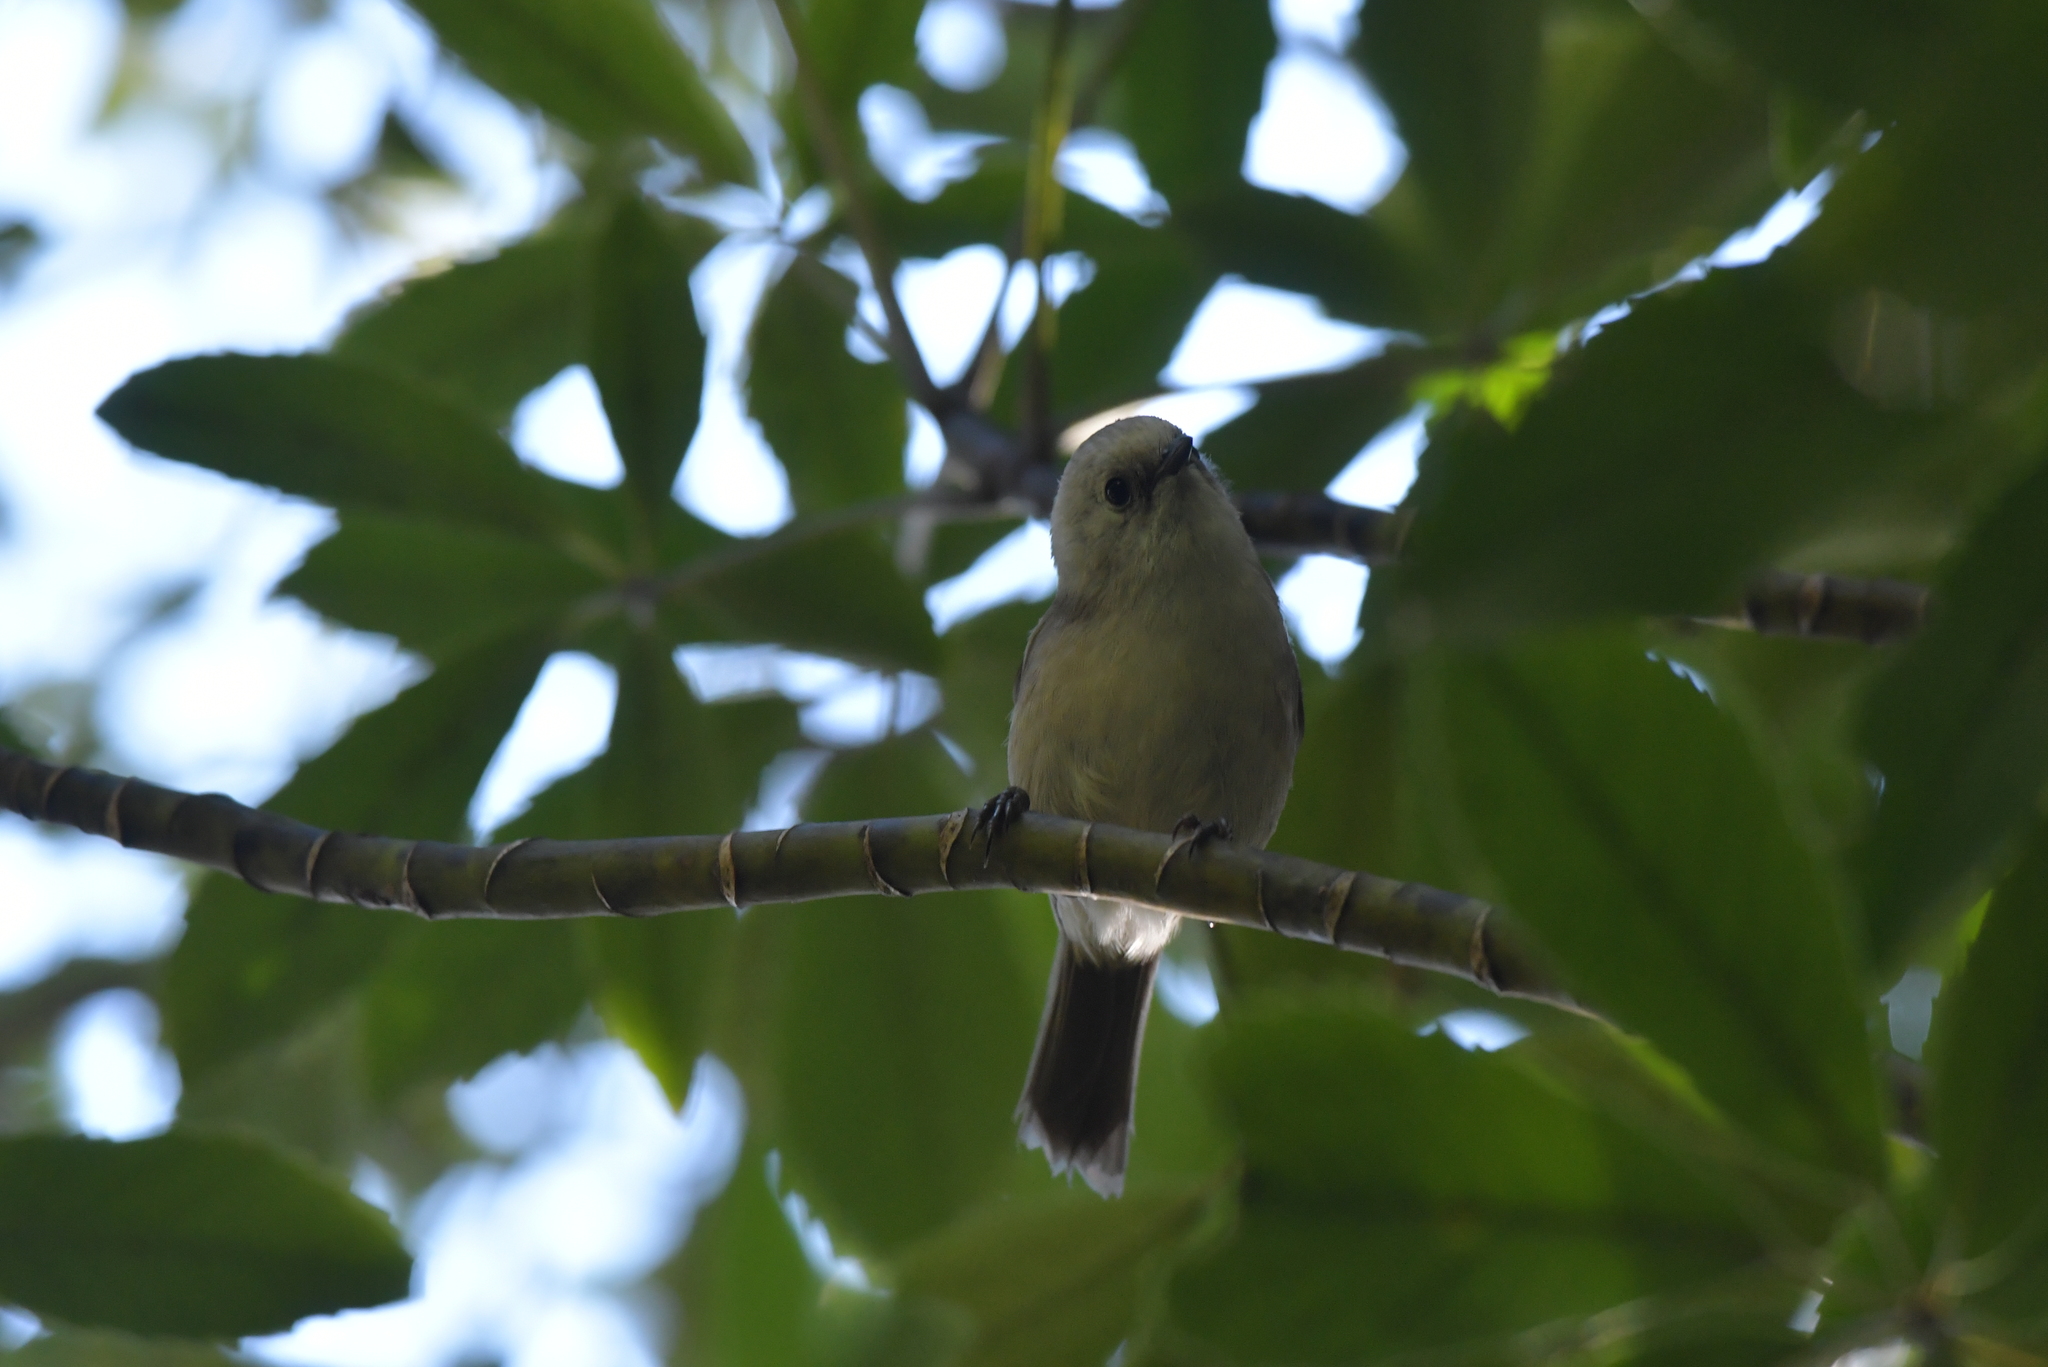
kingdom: Animalia
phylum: Chordata
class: Aves
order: Passeriformes
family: Acanthizidae
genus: Mohoua
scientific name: Mohoua albicilla
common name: Whitehead
